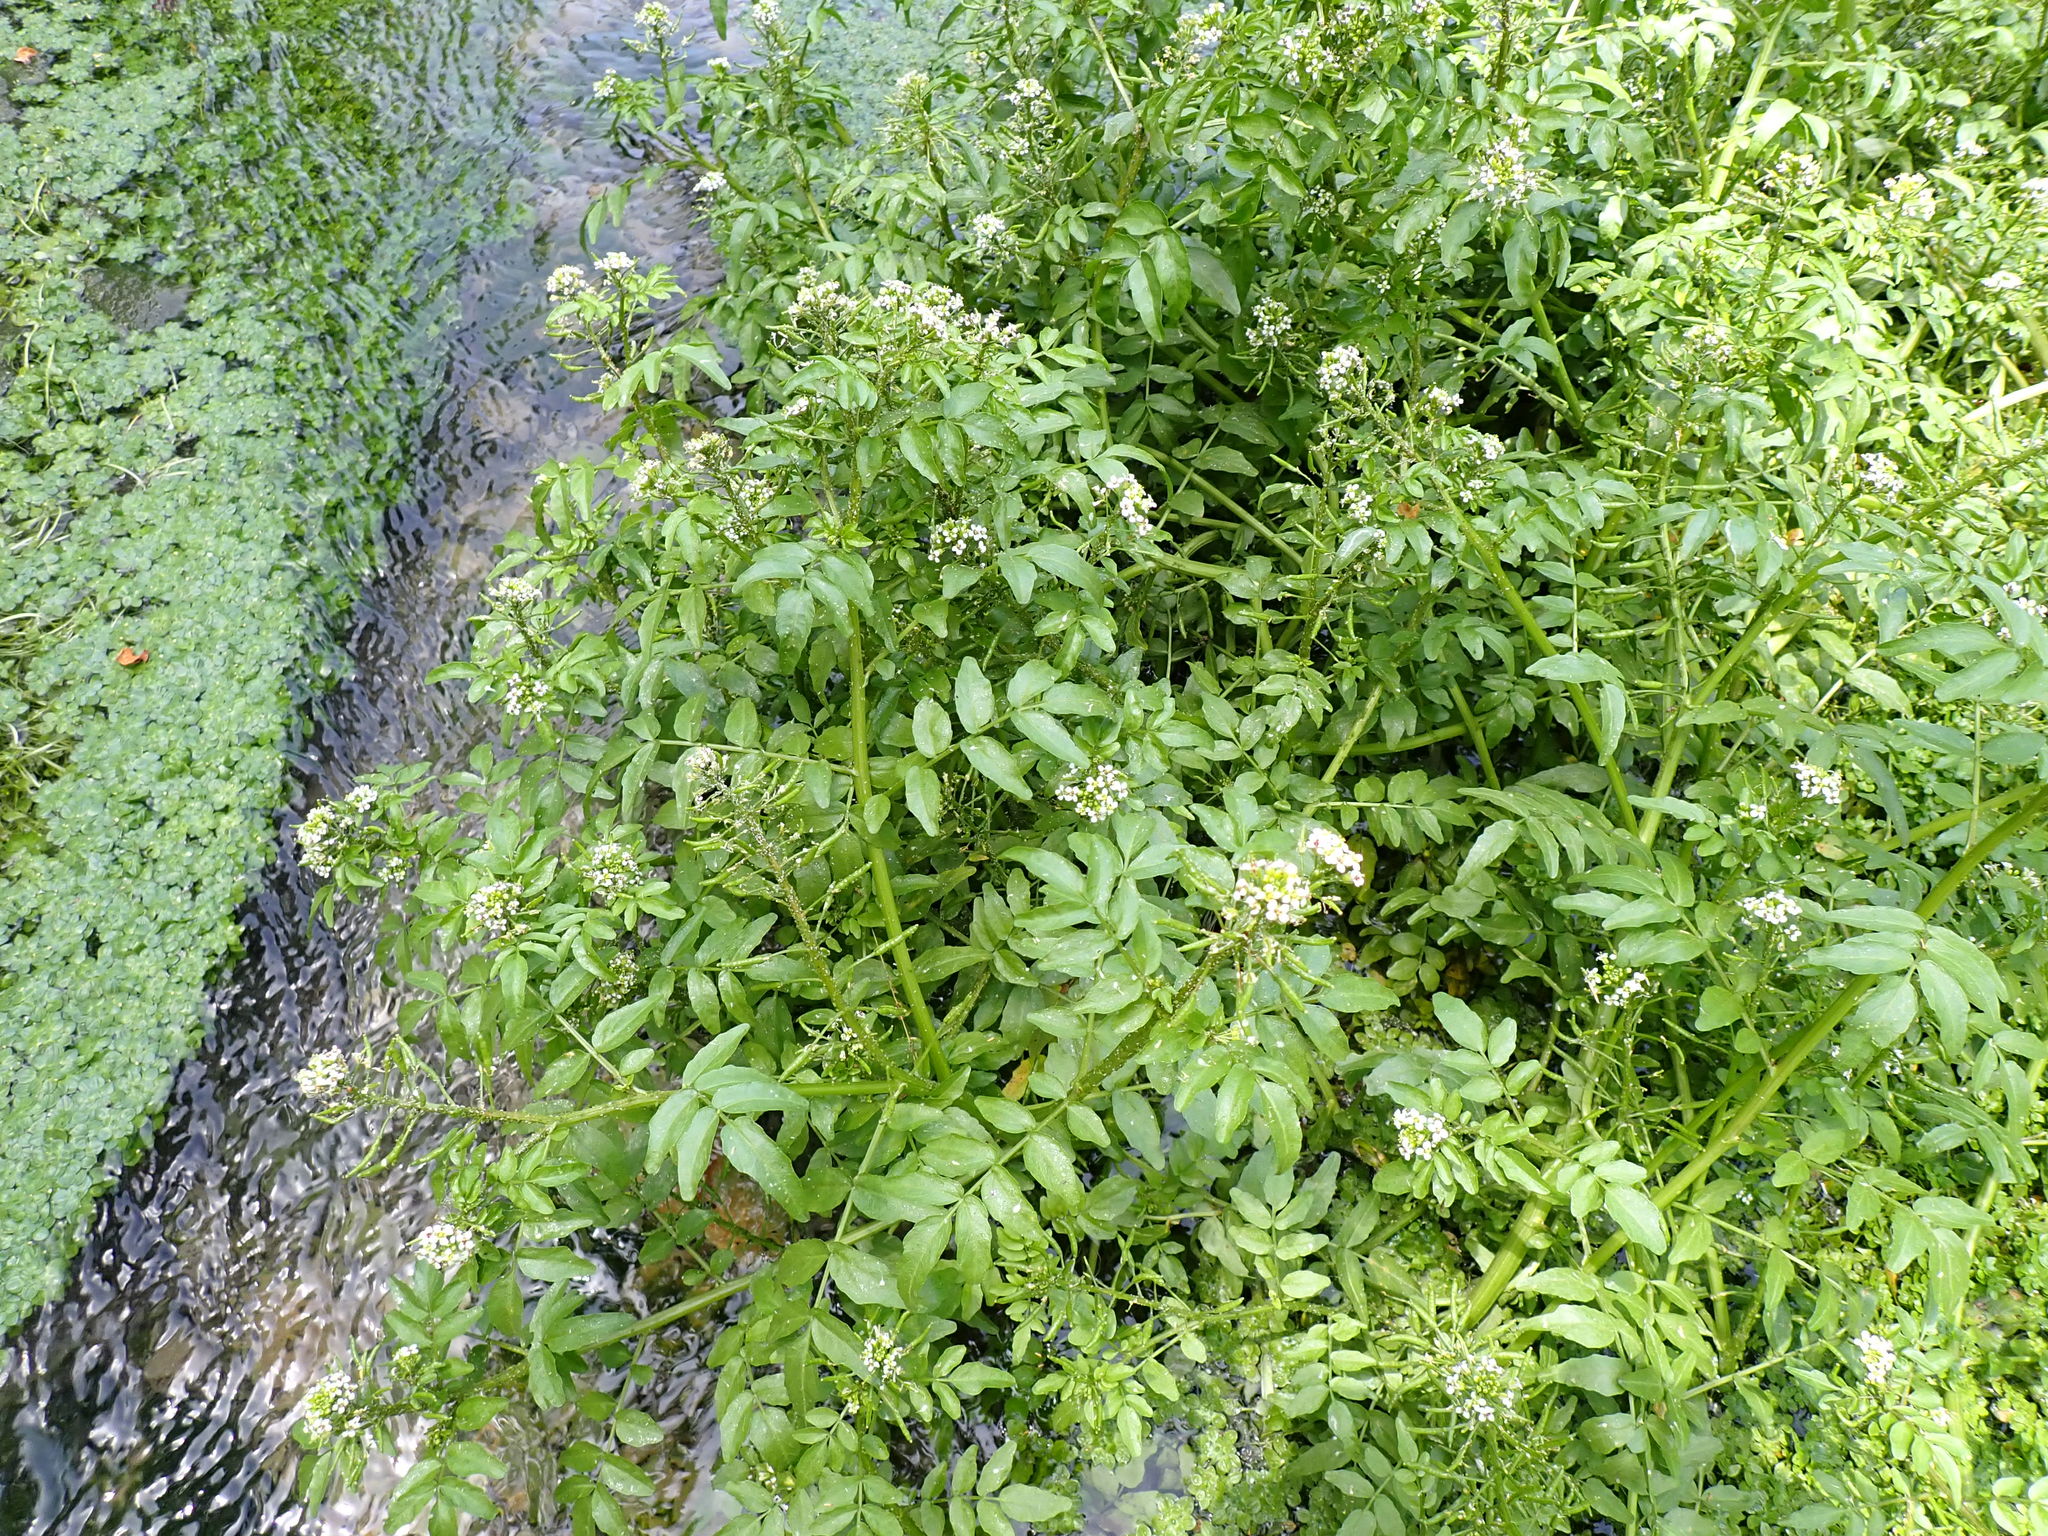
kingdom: Plantae
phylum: Tracheophyta
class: Magnoliopsida
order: Brassicales
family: Brassicaceae
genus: Nasturtium
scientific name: Nasturtium officinale
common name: Watercress
